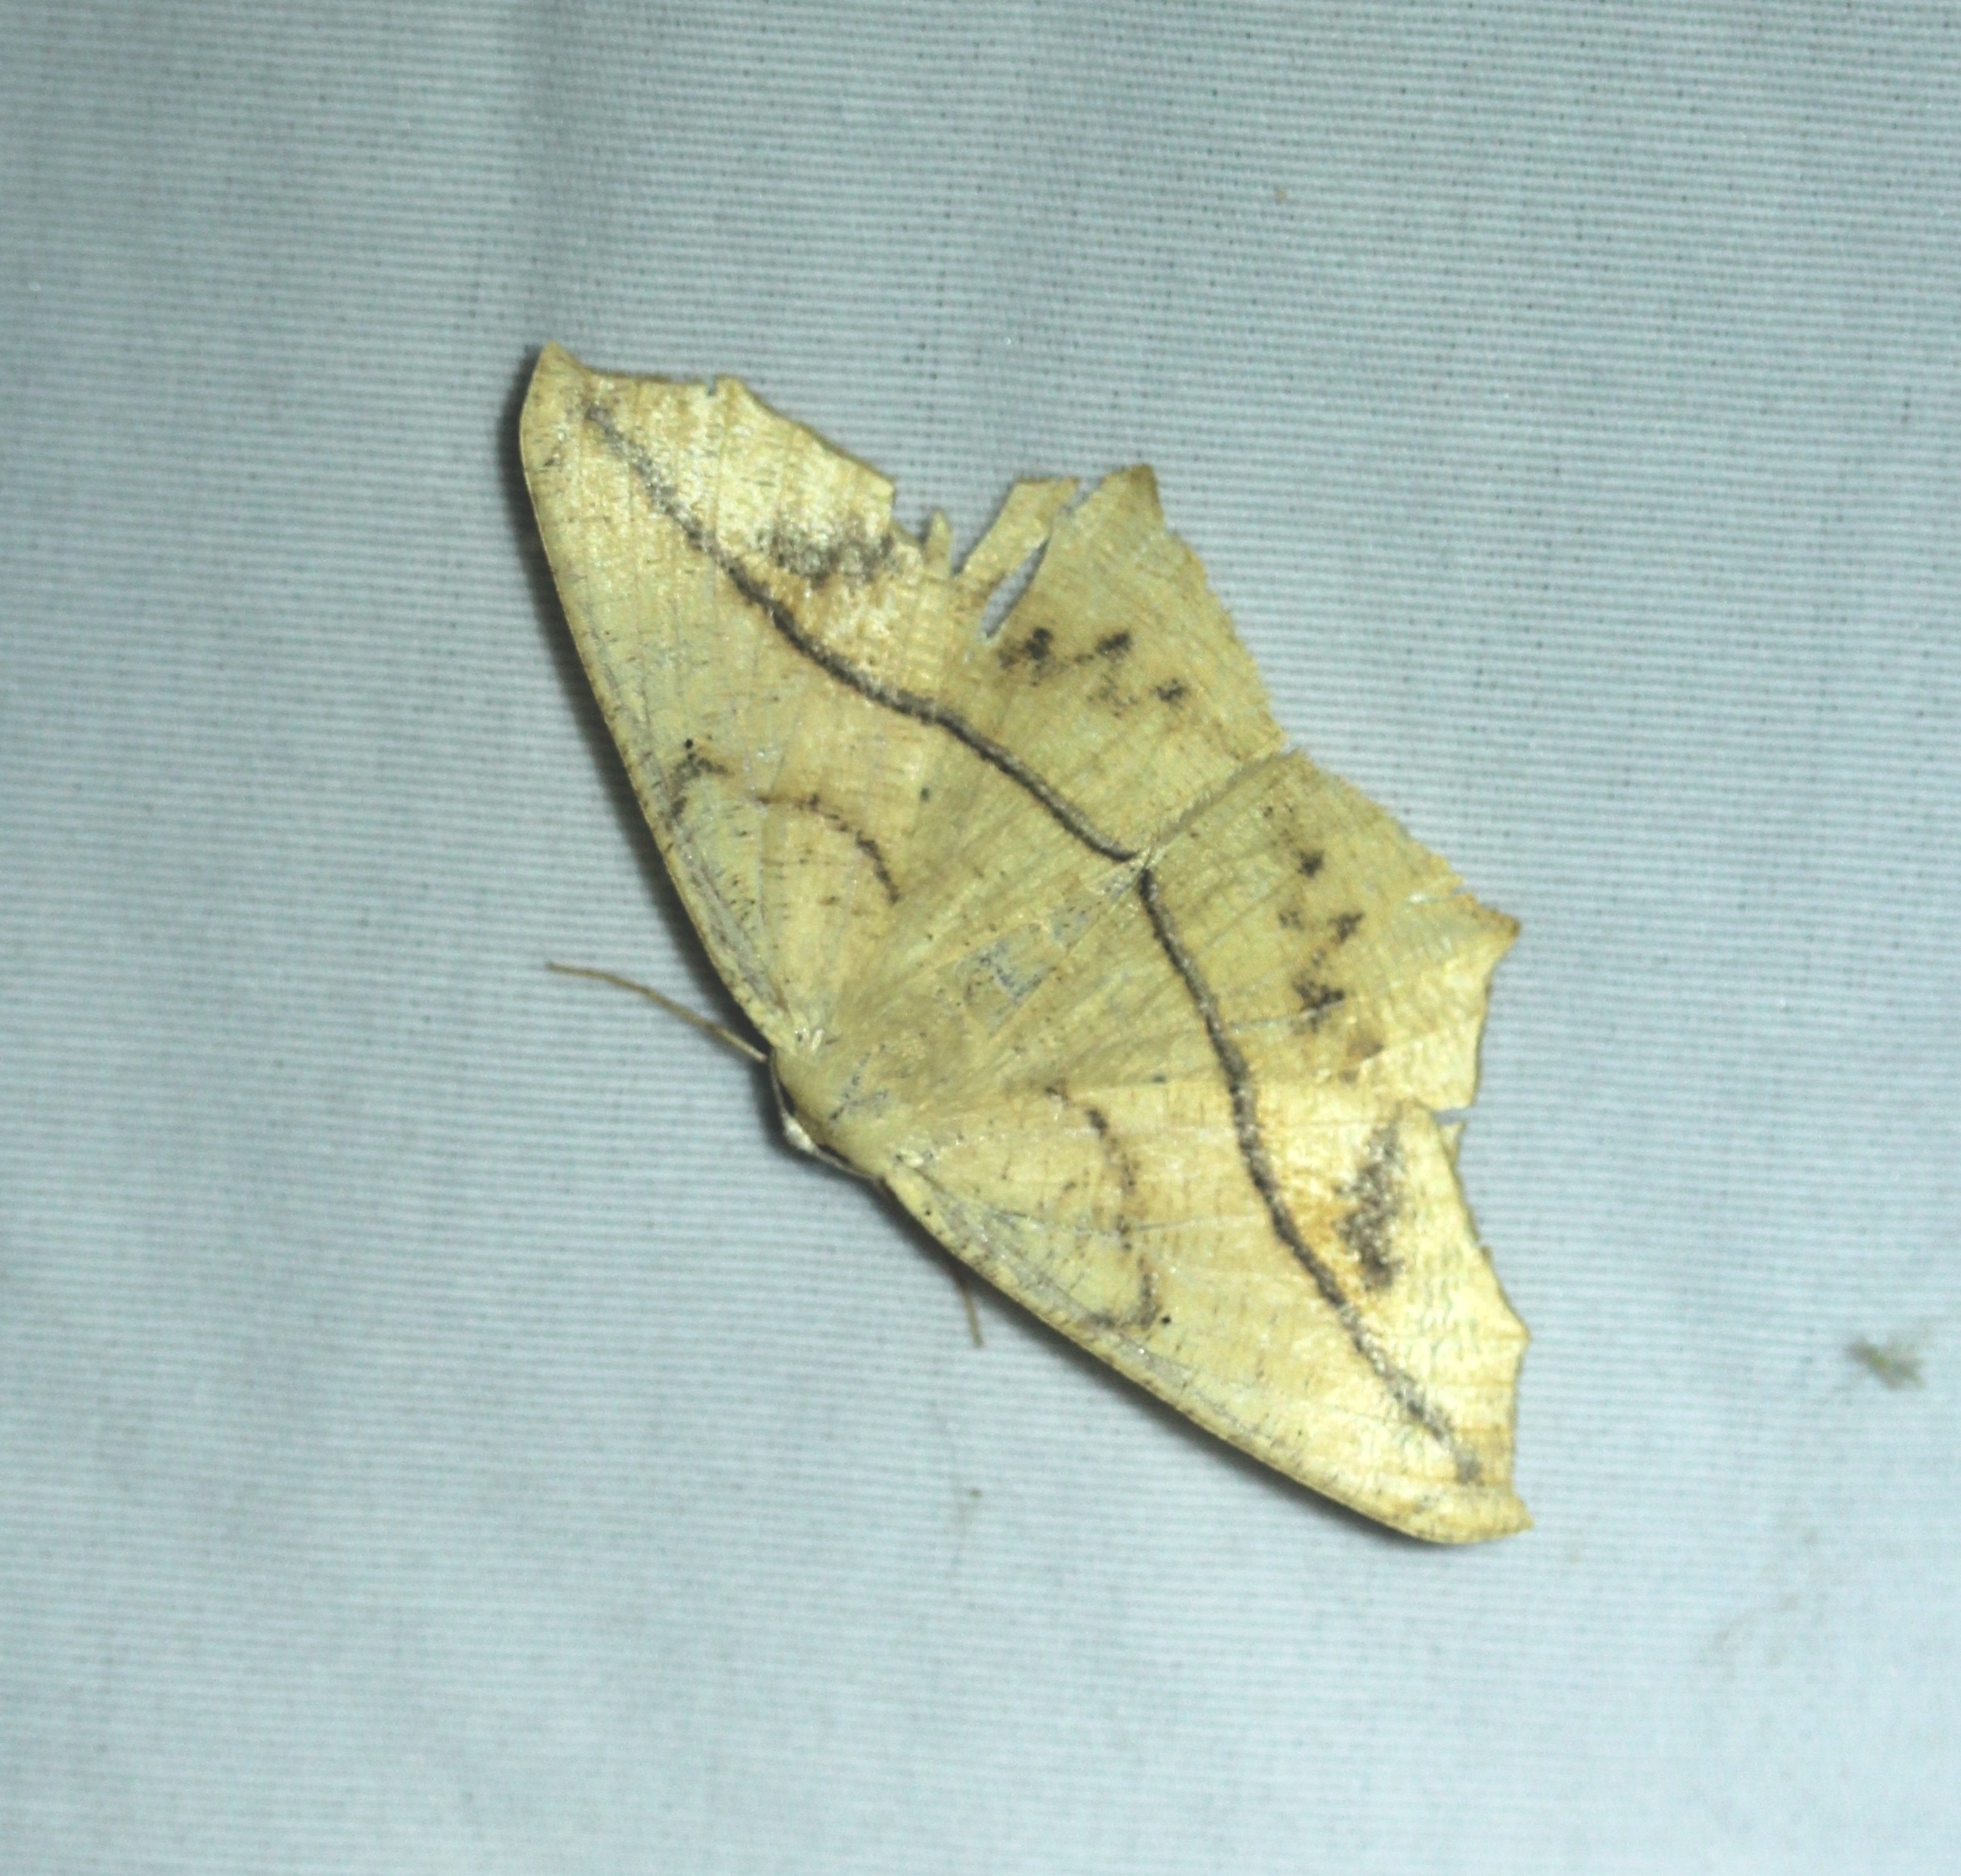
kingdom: Animalia
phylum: Arthropoda
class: Insecta
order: Lepidoptera
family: Geometridae
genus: Prochoerodes
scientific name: Prochoerodes lineola
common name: Large maple spanworm
